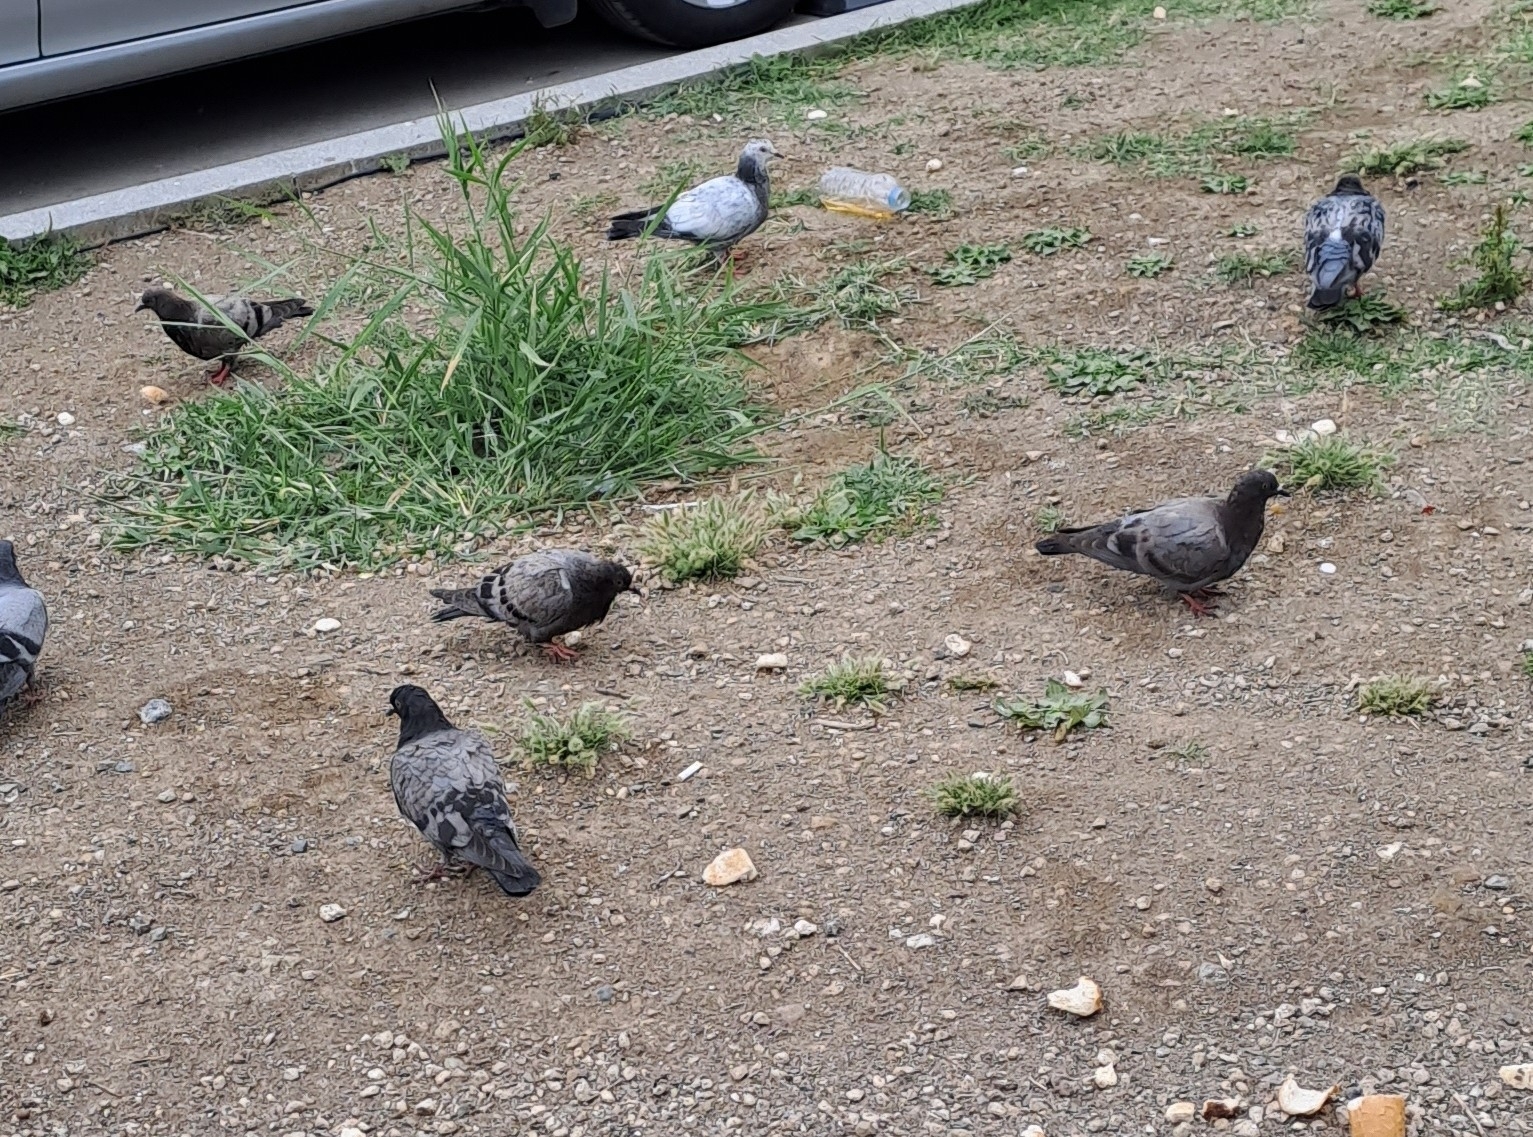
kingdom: Animalia
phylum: Chordata
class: Aves
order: Columbiformes
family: Columbidae
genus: Columba
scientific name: Columba livia
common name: Rock pigeon
